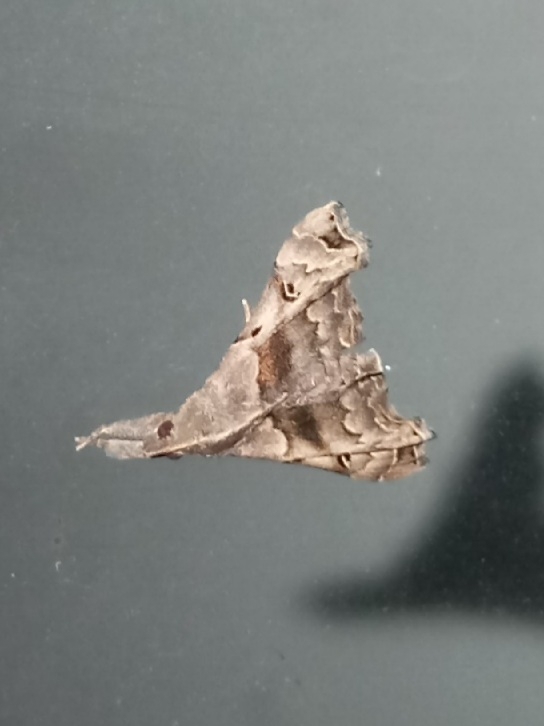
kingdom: Animalia
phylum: Arthropoda
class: Insecta
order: Lepidoptera
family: Erebidae
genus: Palthis
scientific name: Palthis asopialis
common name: Faint-spotted palthis moth
